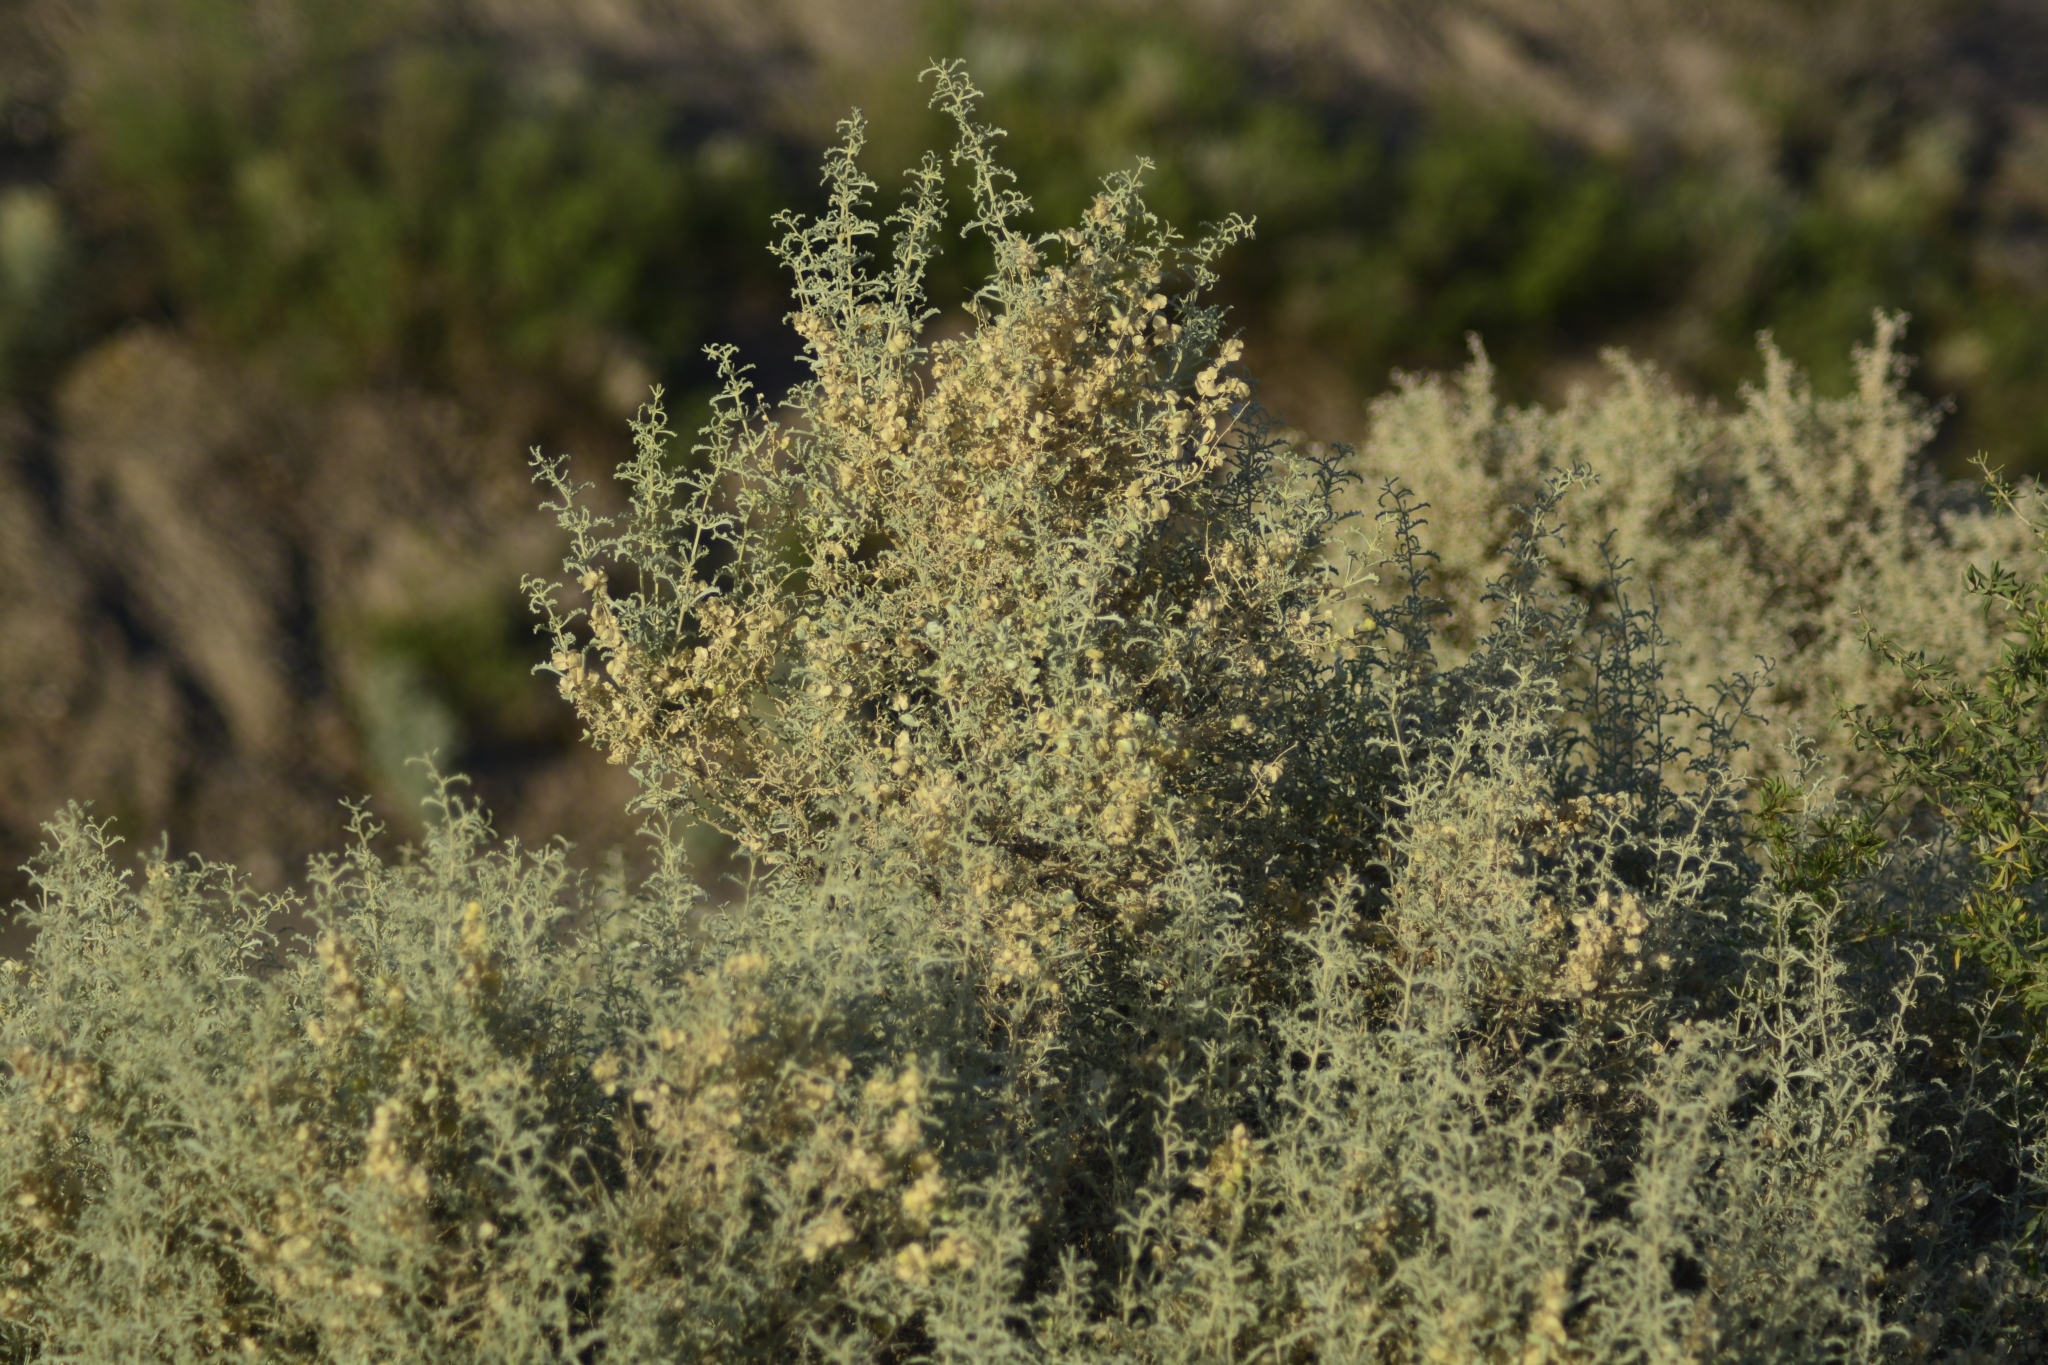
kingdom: Plantae
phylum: Tracheophyta
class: Magnoliopsida
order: Caryophyllales
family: Amaranthaceae
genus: Atriplex
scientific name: Atriplex lampa
